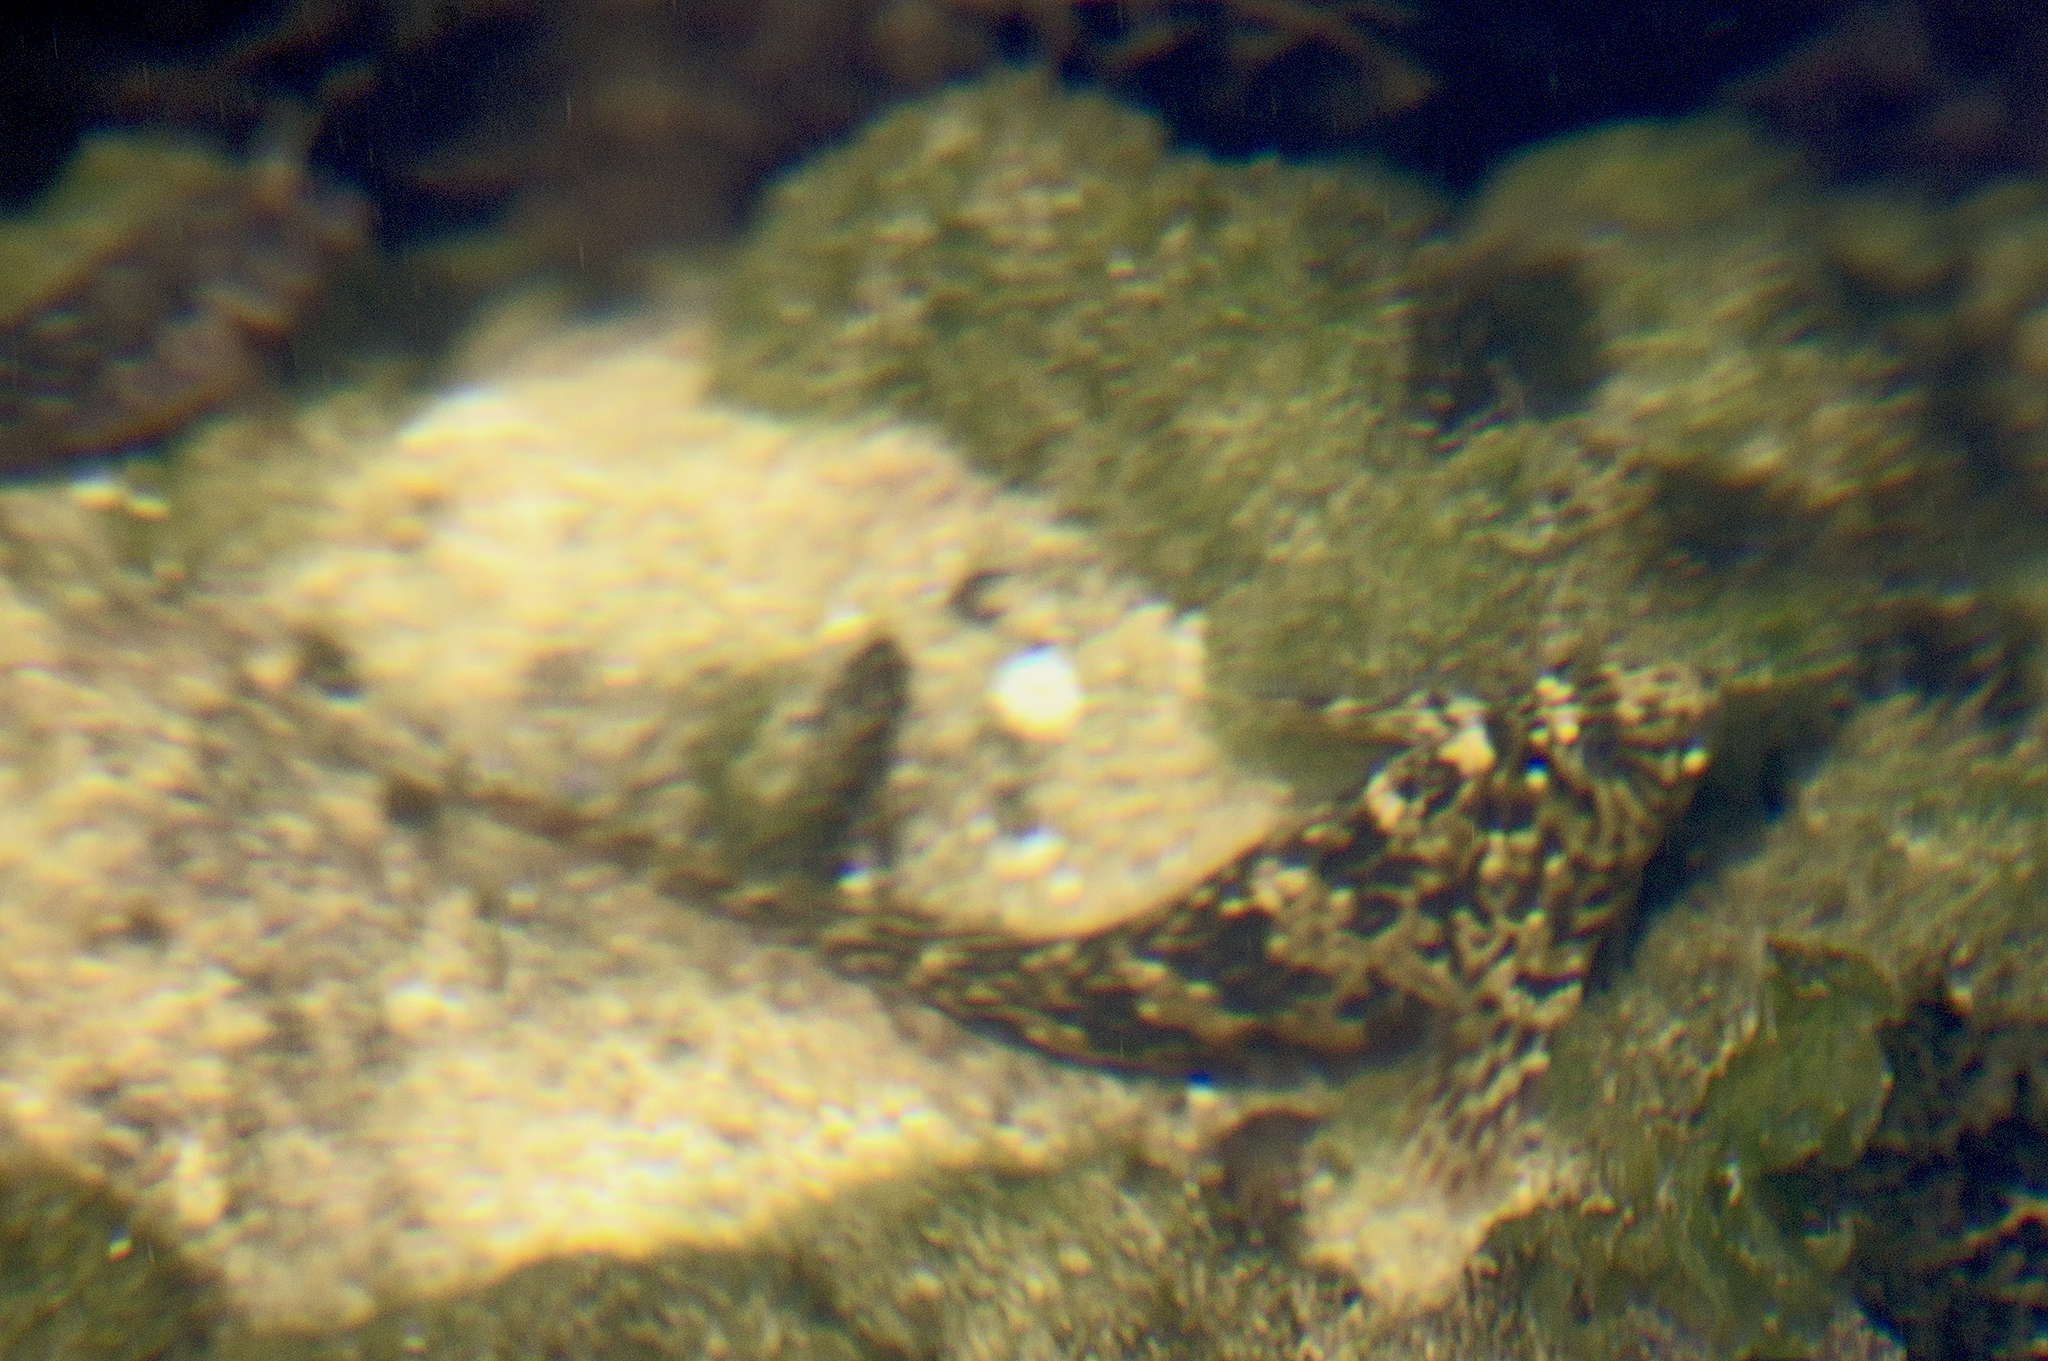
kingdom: Animalia
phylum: Chordata
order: Perciformes
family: Blenniidae
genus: Parablennius
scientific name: Parablennius sanguinolentus
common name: Black sea blenny
